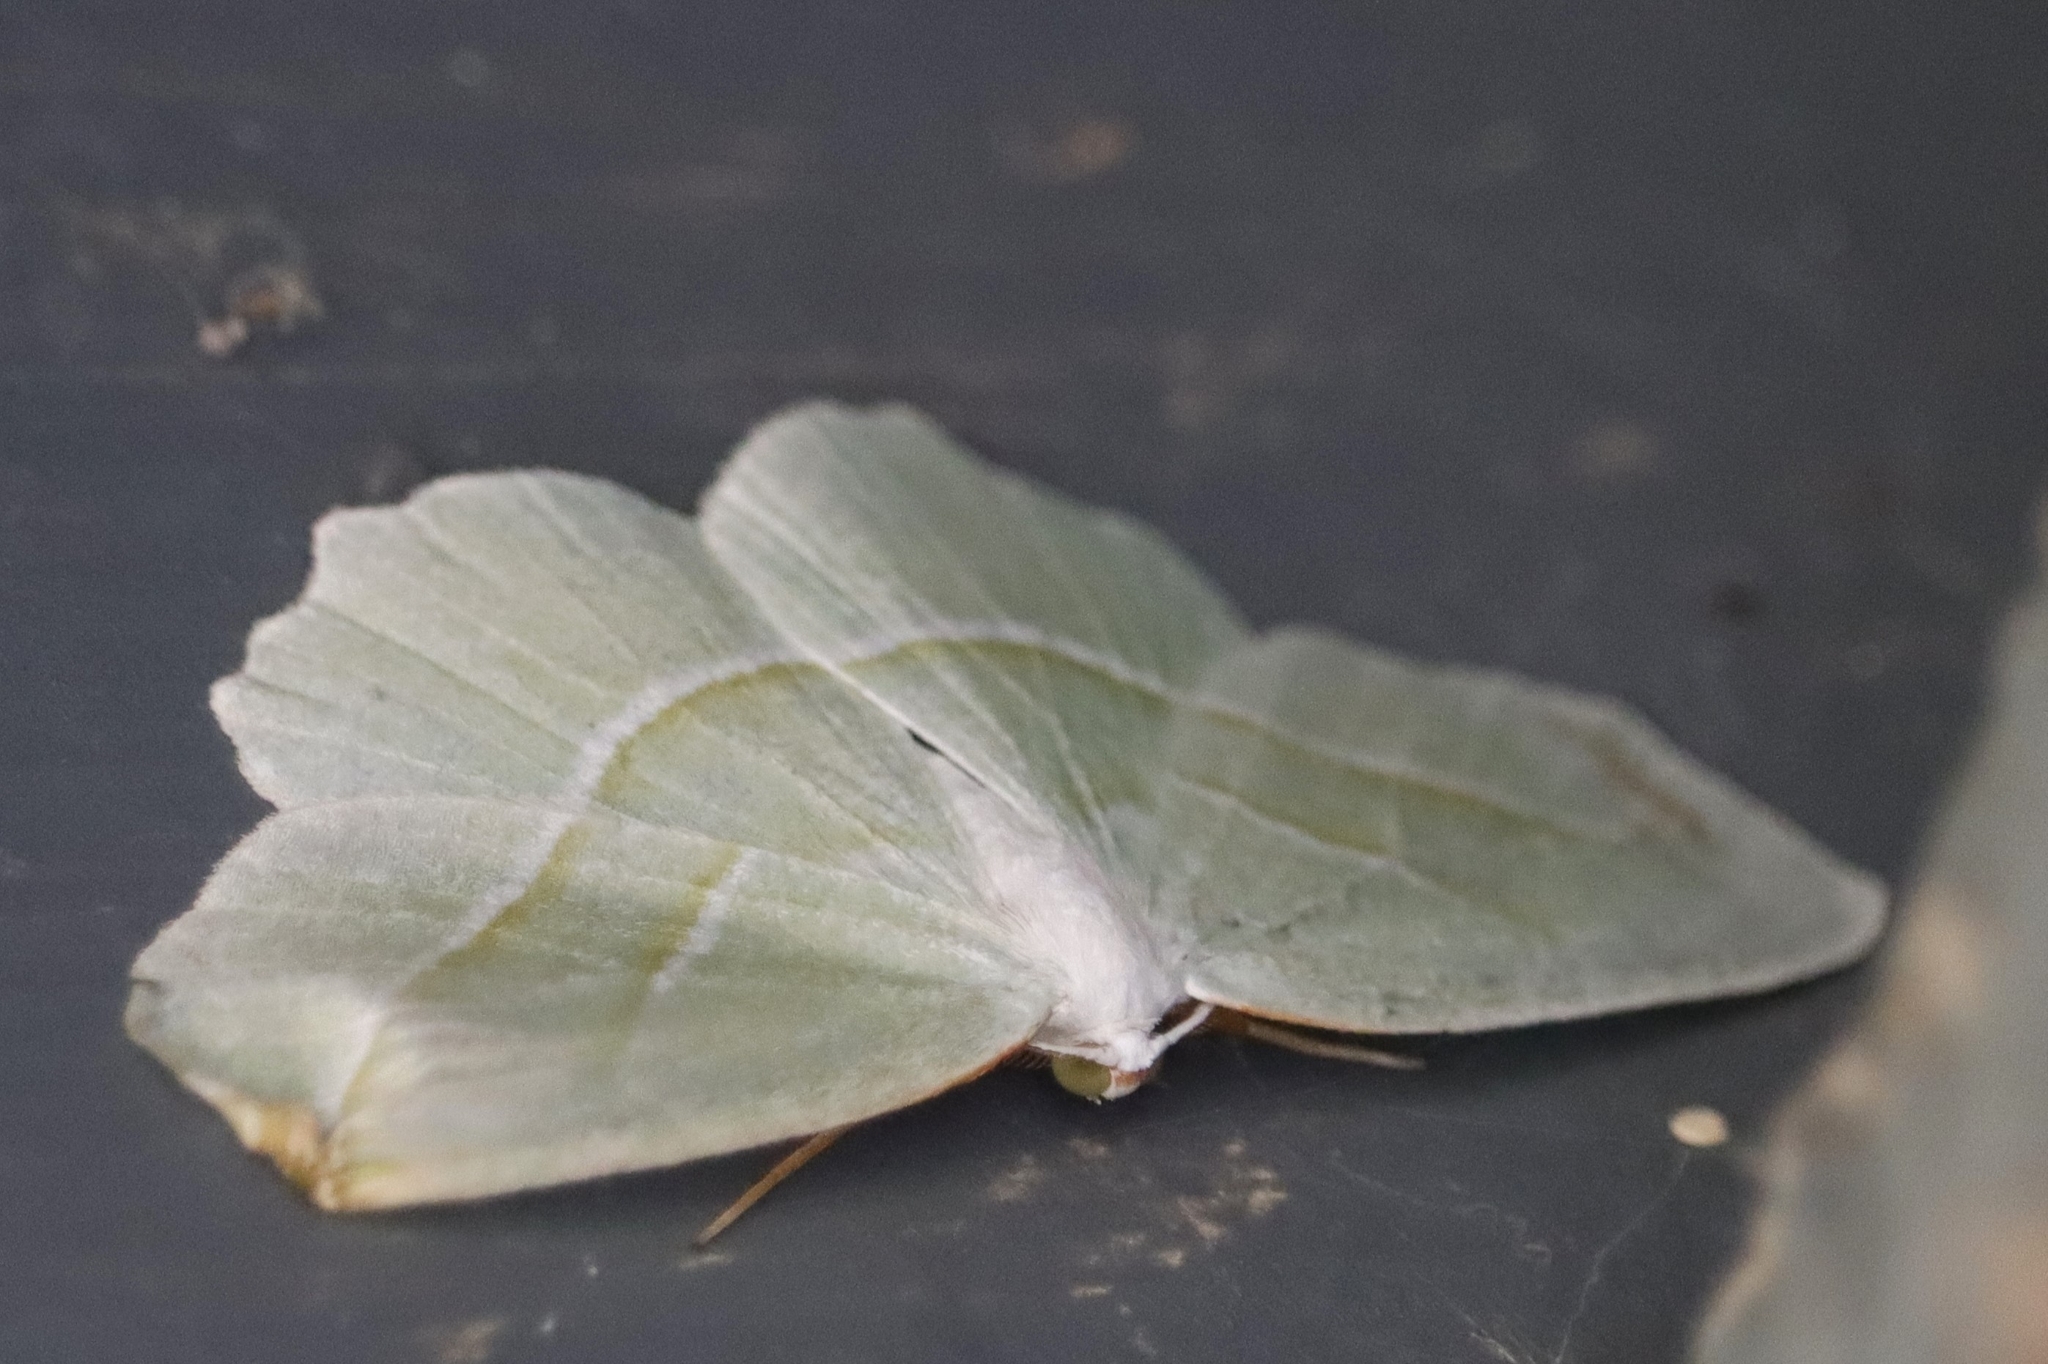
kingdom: Animalia
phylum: Arthropoda
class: Insecta
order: Lepidoptera
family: Geometridae
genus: Campaea
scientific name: Campaea perlata
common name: Fringed looper
